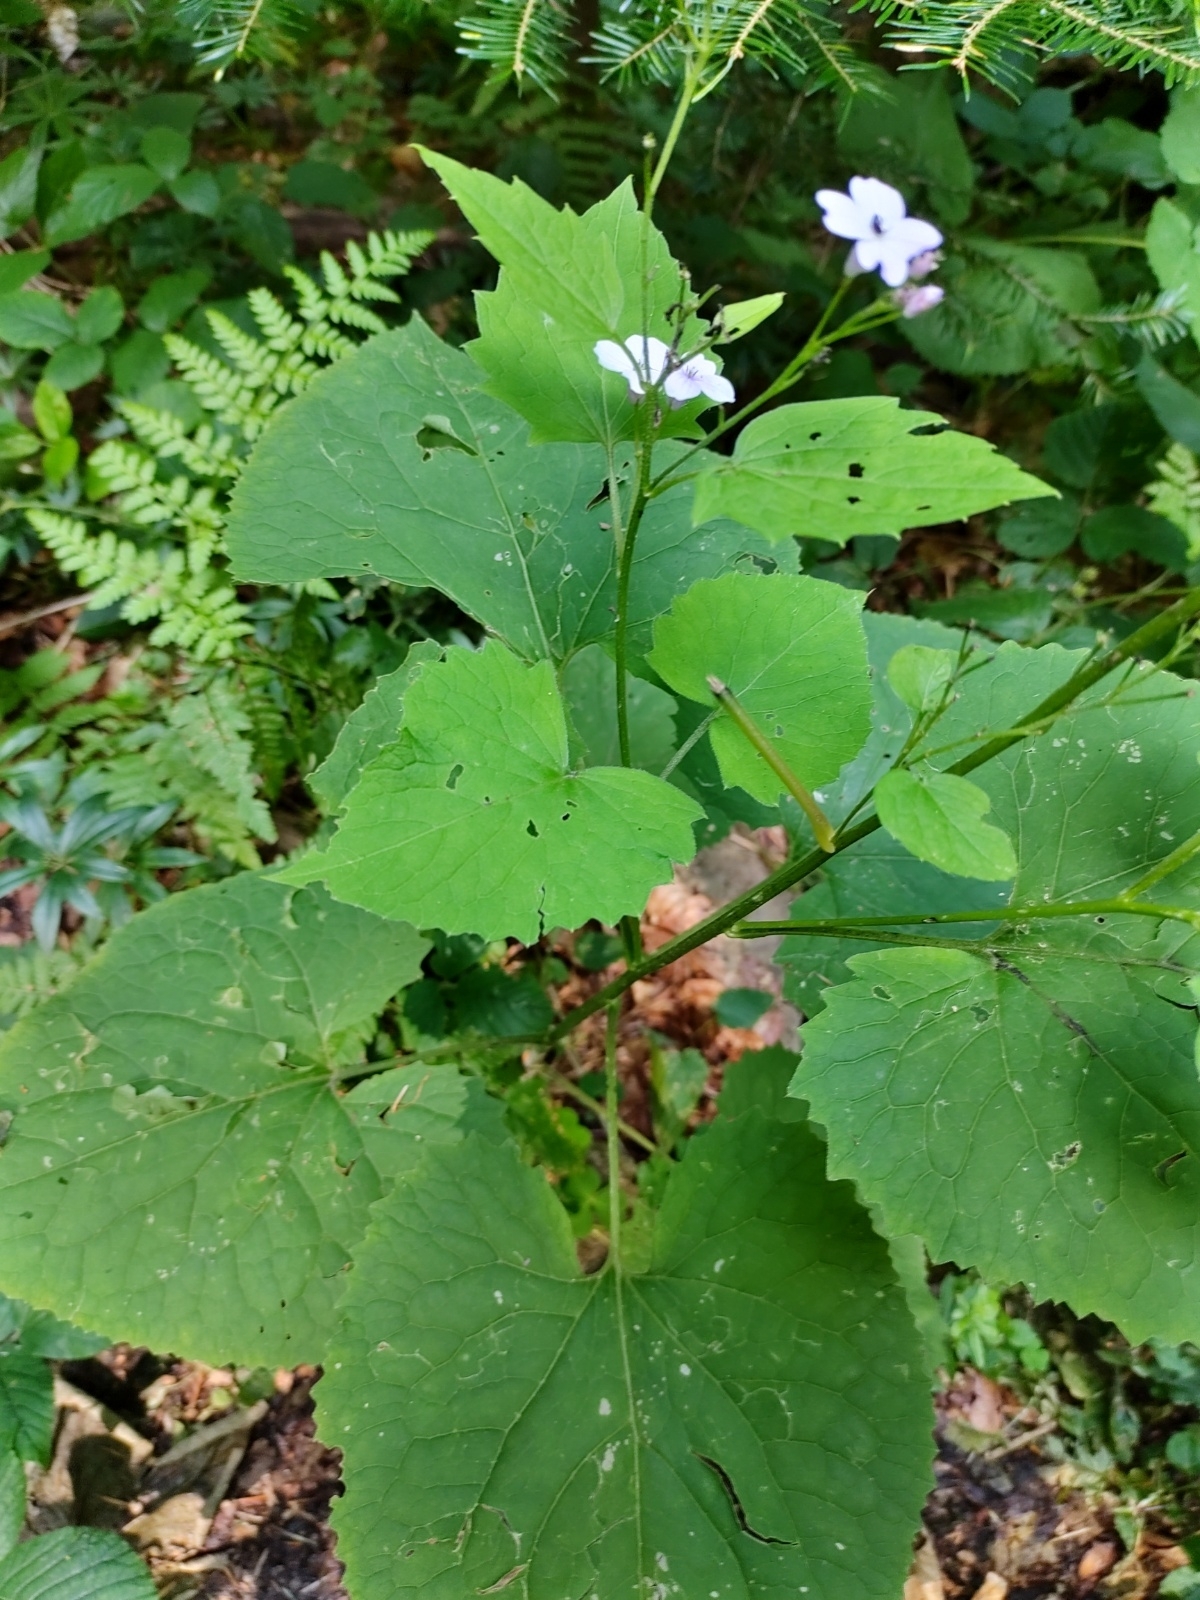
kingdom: Plantae
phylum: Tracheophyta
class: Magnoliopsida
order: Brassicales
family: Brassicaceae
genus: Lunaria
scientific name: Lunaria rediviva
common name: Perennial honesty
